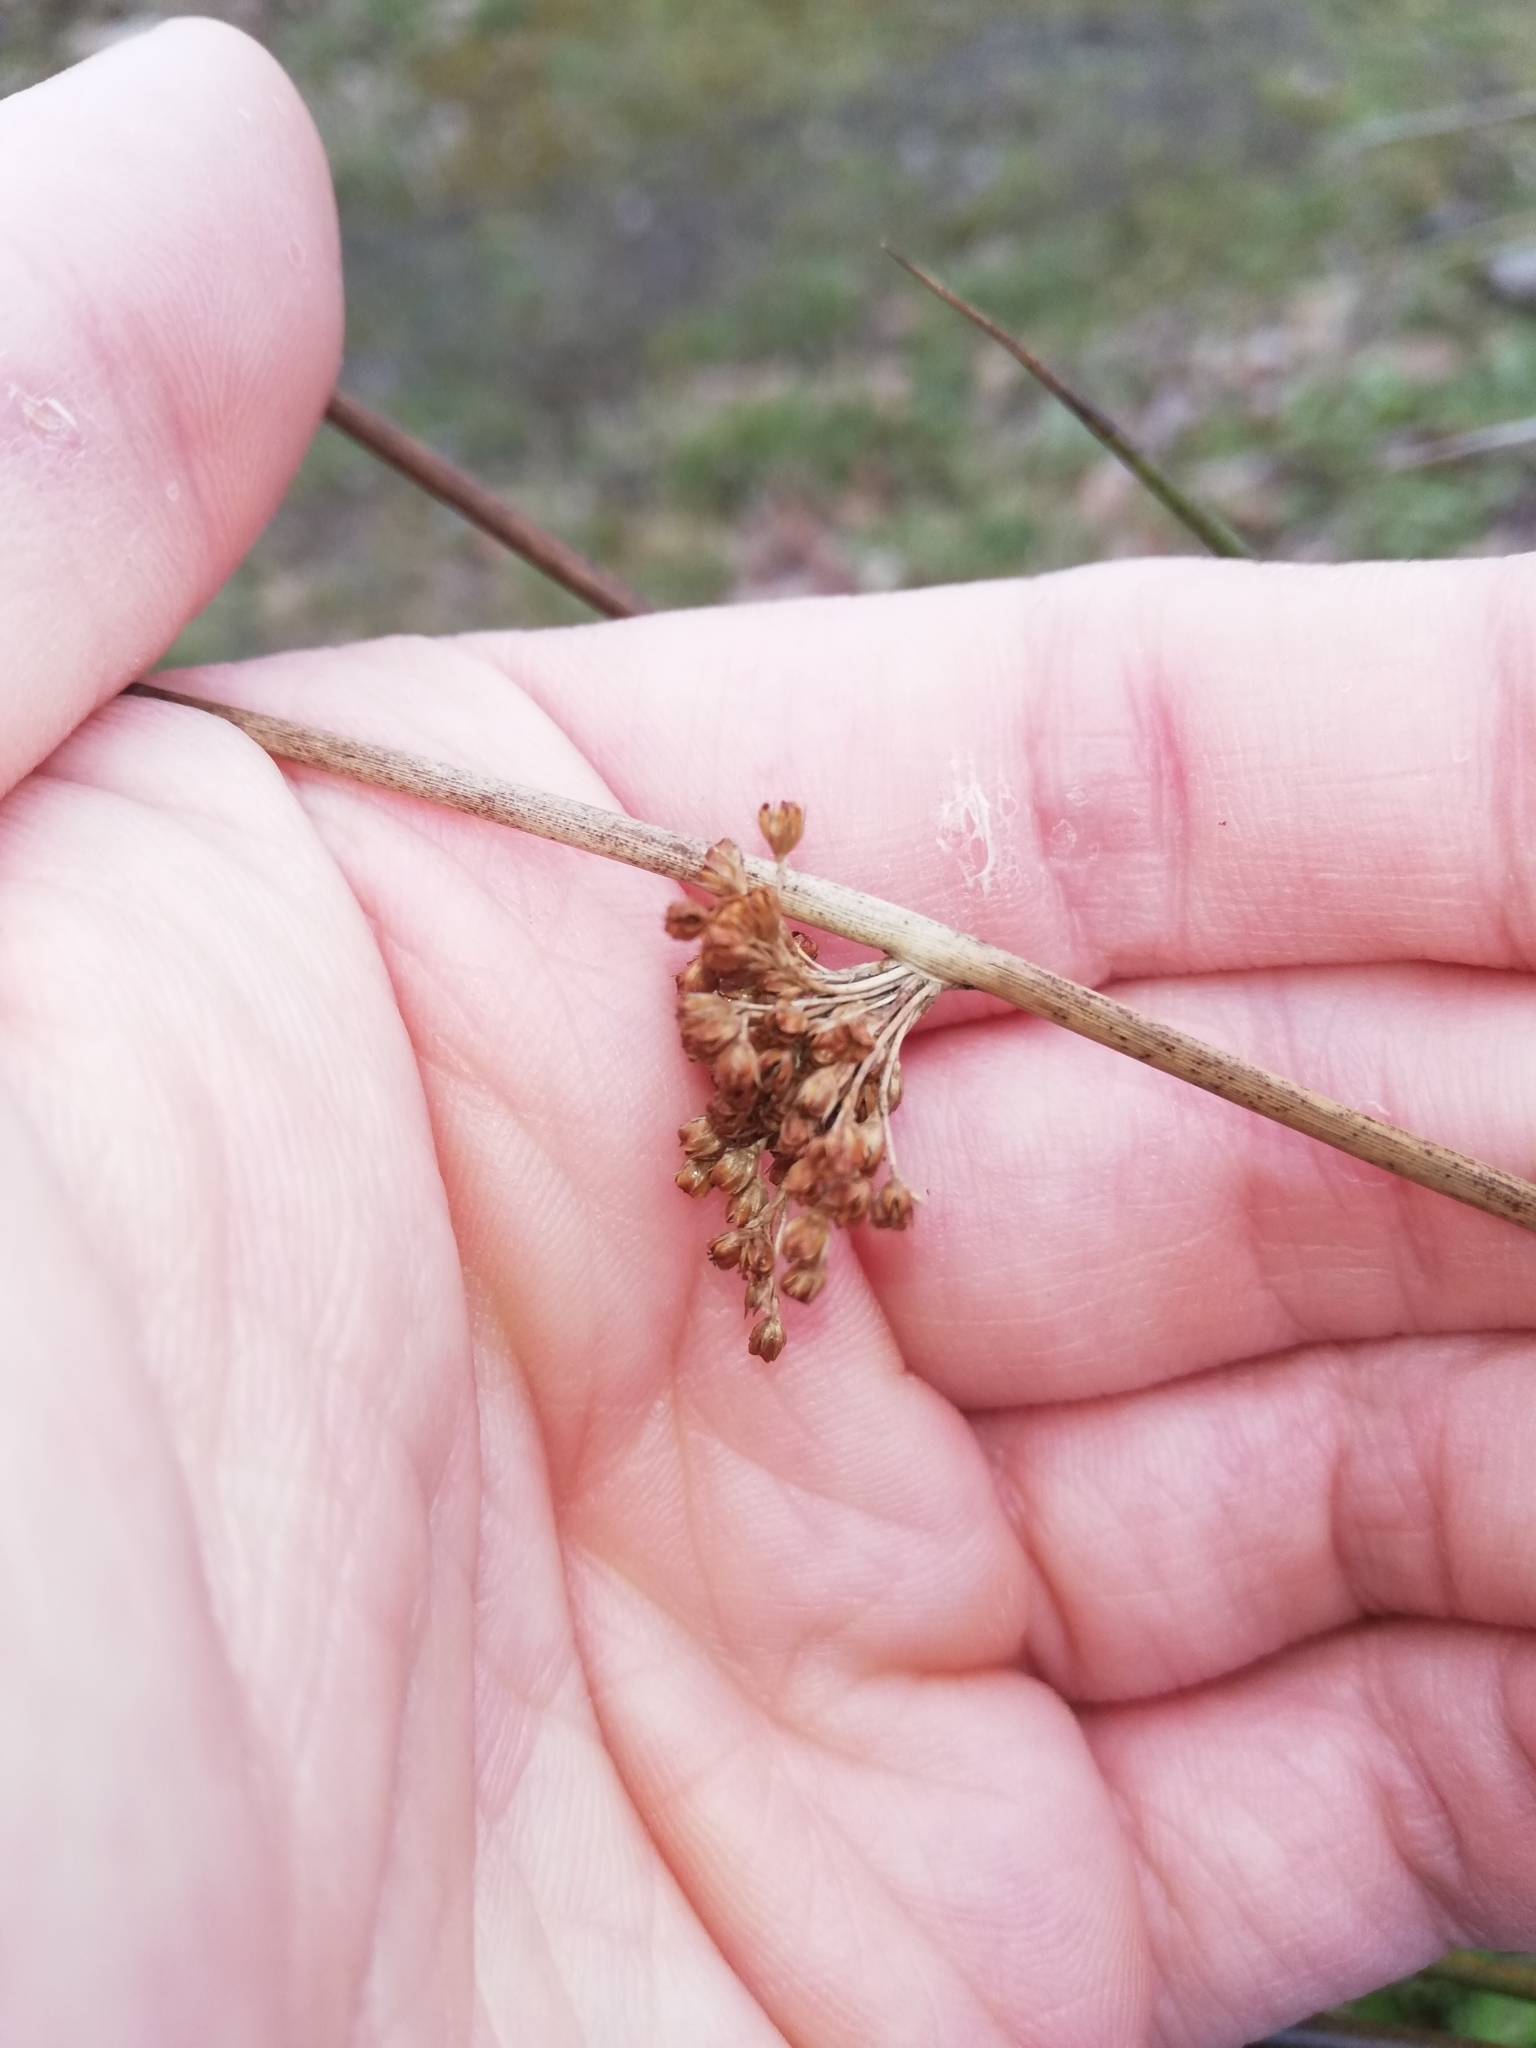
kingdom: Plantae
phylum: Tracheophyta
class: Liliopsida
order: Poales
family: Juncaceae
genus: Juncus
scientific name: Juncus effusus
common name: Soft rush
